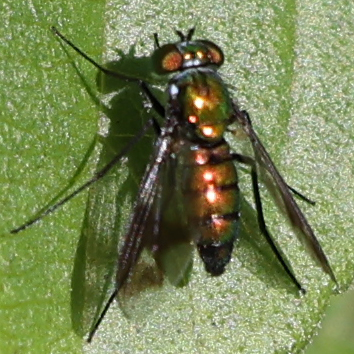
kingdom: Animalia
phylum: Arthropoda
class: Insecta
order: Diptera
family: Dolichopodidae
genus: Condylostylus
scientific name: Condylostylus patibulatus
